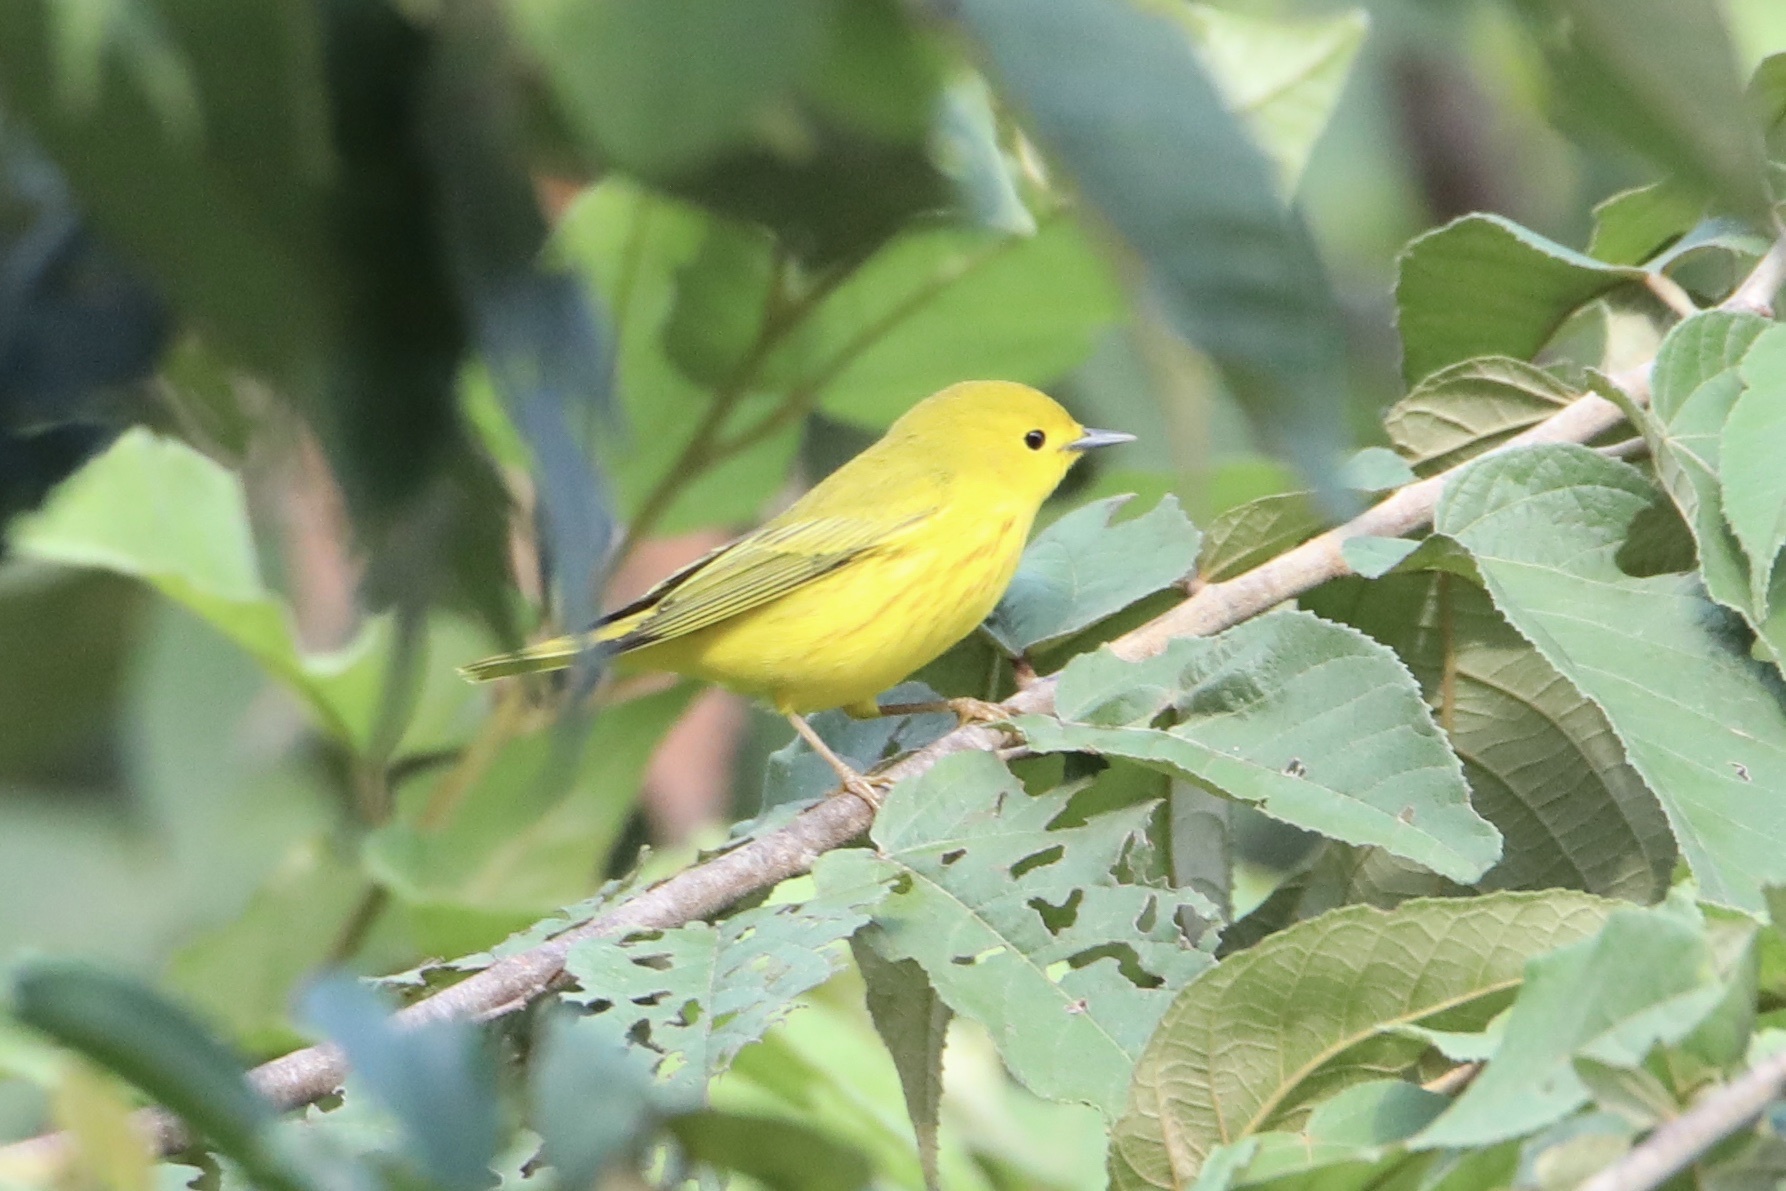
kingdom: Animalia
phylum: Chordata
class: Aves
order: Passeriformes
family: Parulidae
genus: Setophaga
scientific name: Setophaga petechia
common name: Yellow warbler
